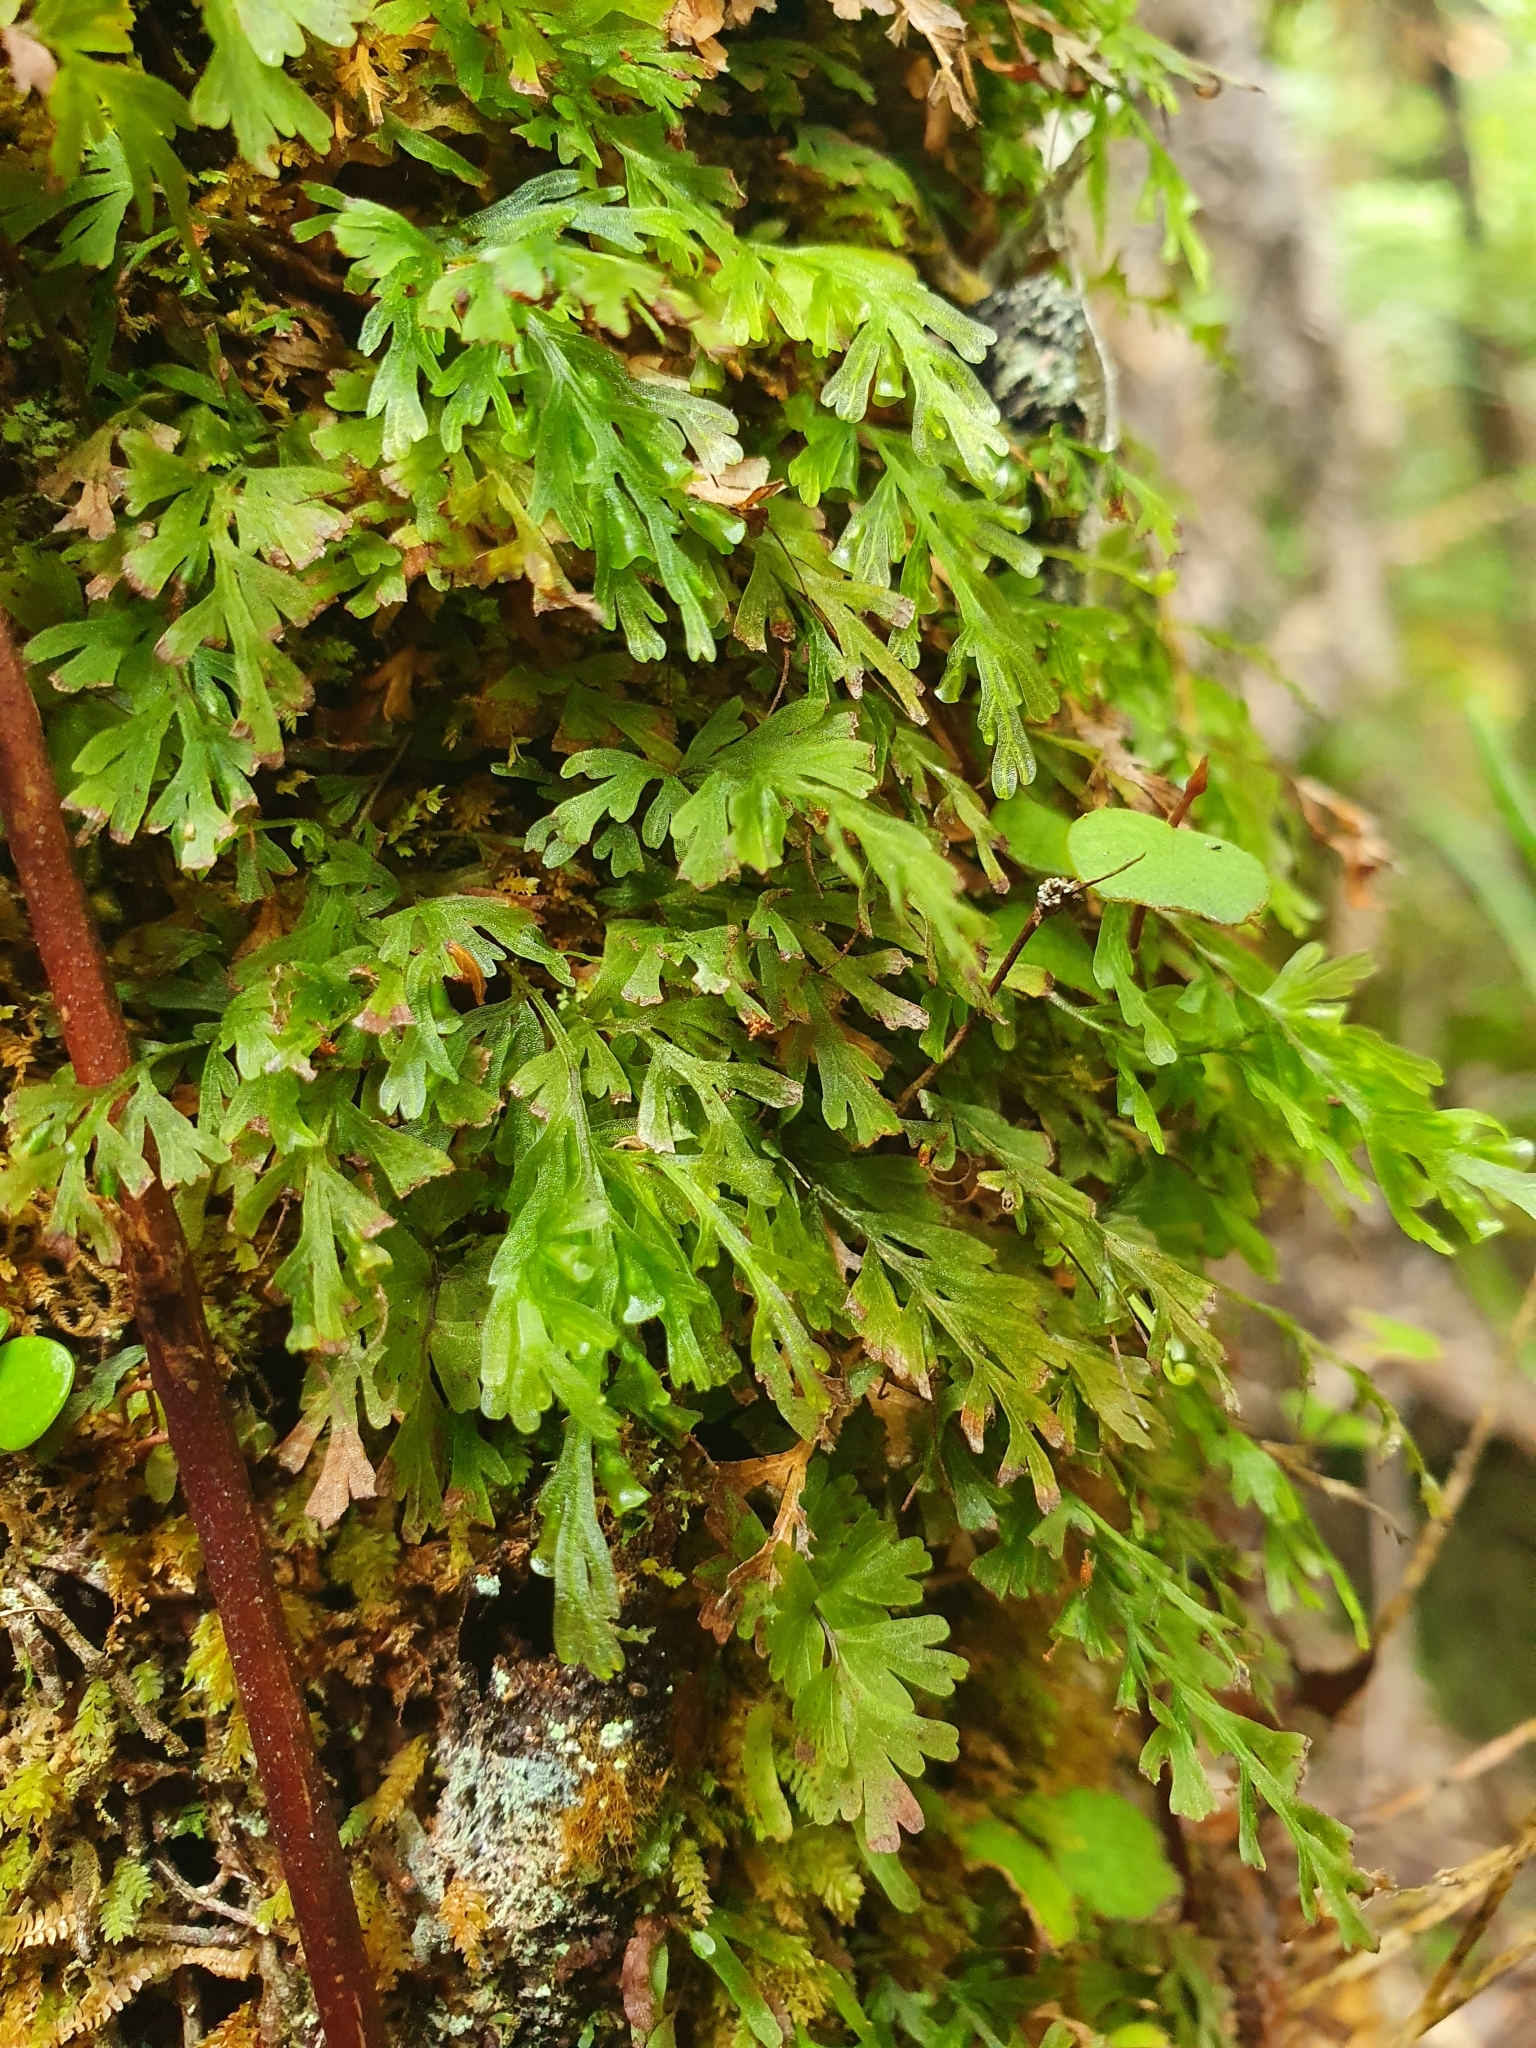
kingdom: Plantae
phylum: Tracheophyta
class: Polypodiopsida
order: Hymenophyllales
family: Hymenophyllaceae
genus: Polyphlebium
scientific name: Polyphlebium endlicherianum
